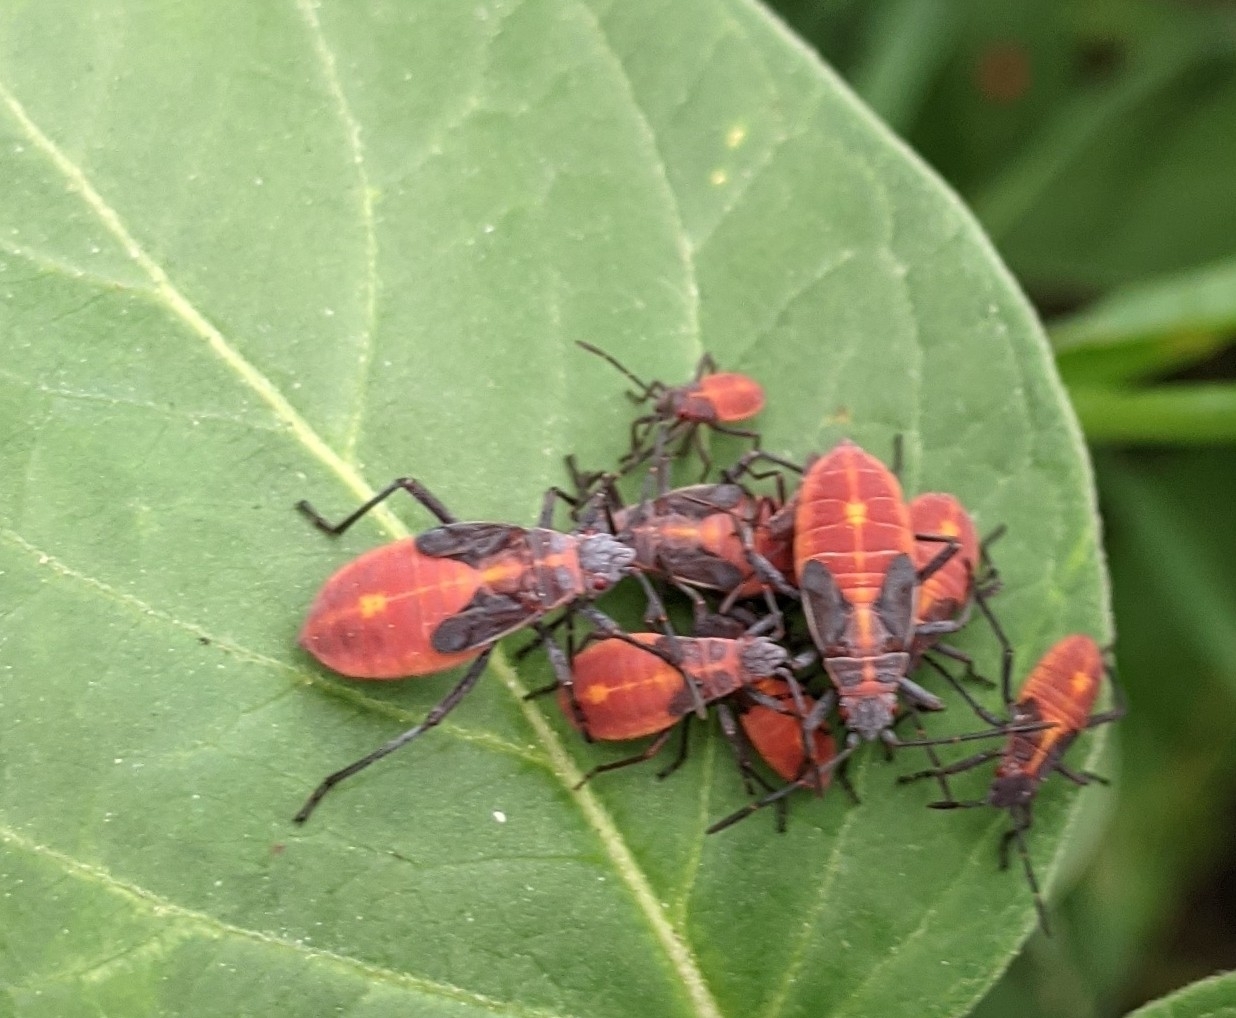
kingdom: Animalia
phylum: Arthropoda
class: Insecta
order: Hemiptera
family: Rhopalidae
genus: Boisea
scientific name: Boisea trivittata
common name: Boxelder bug
